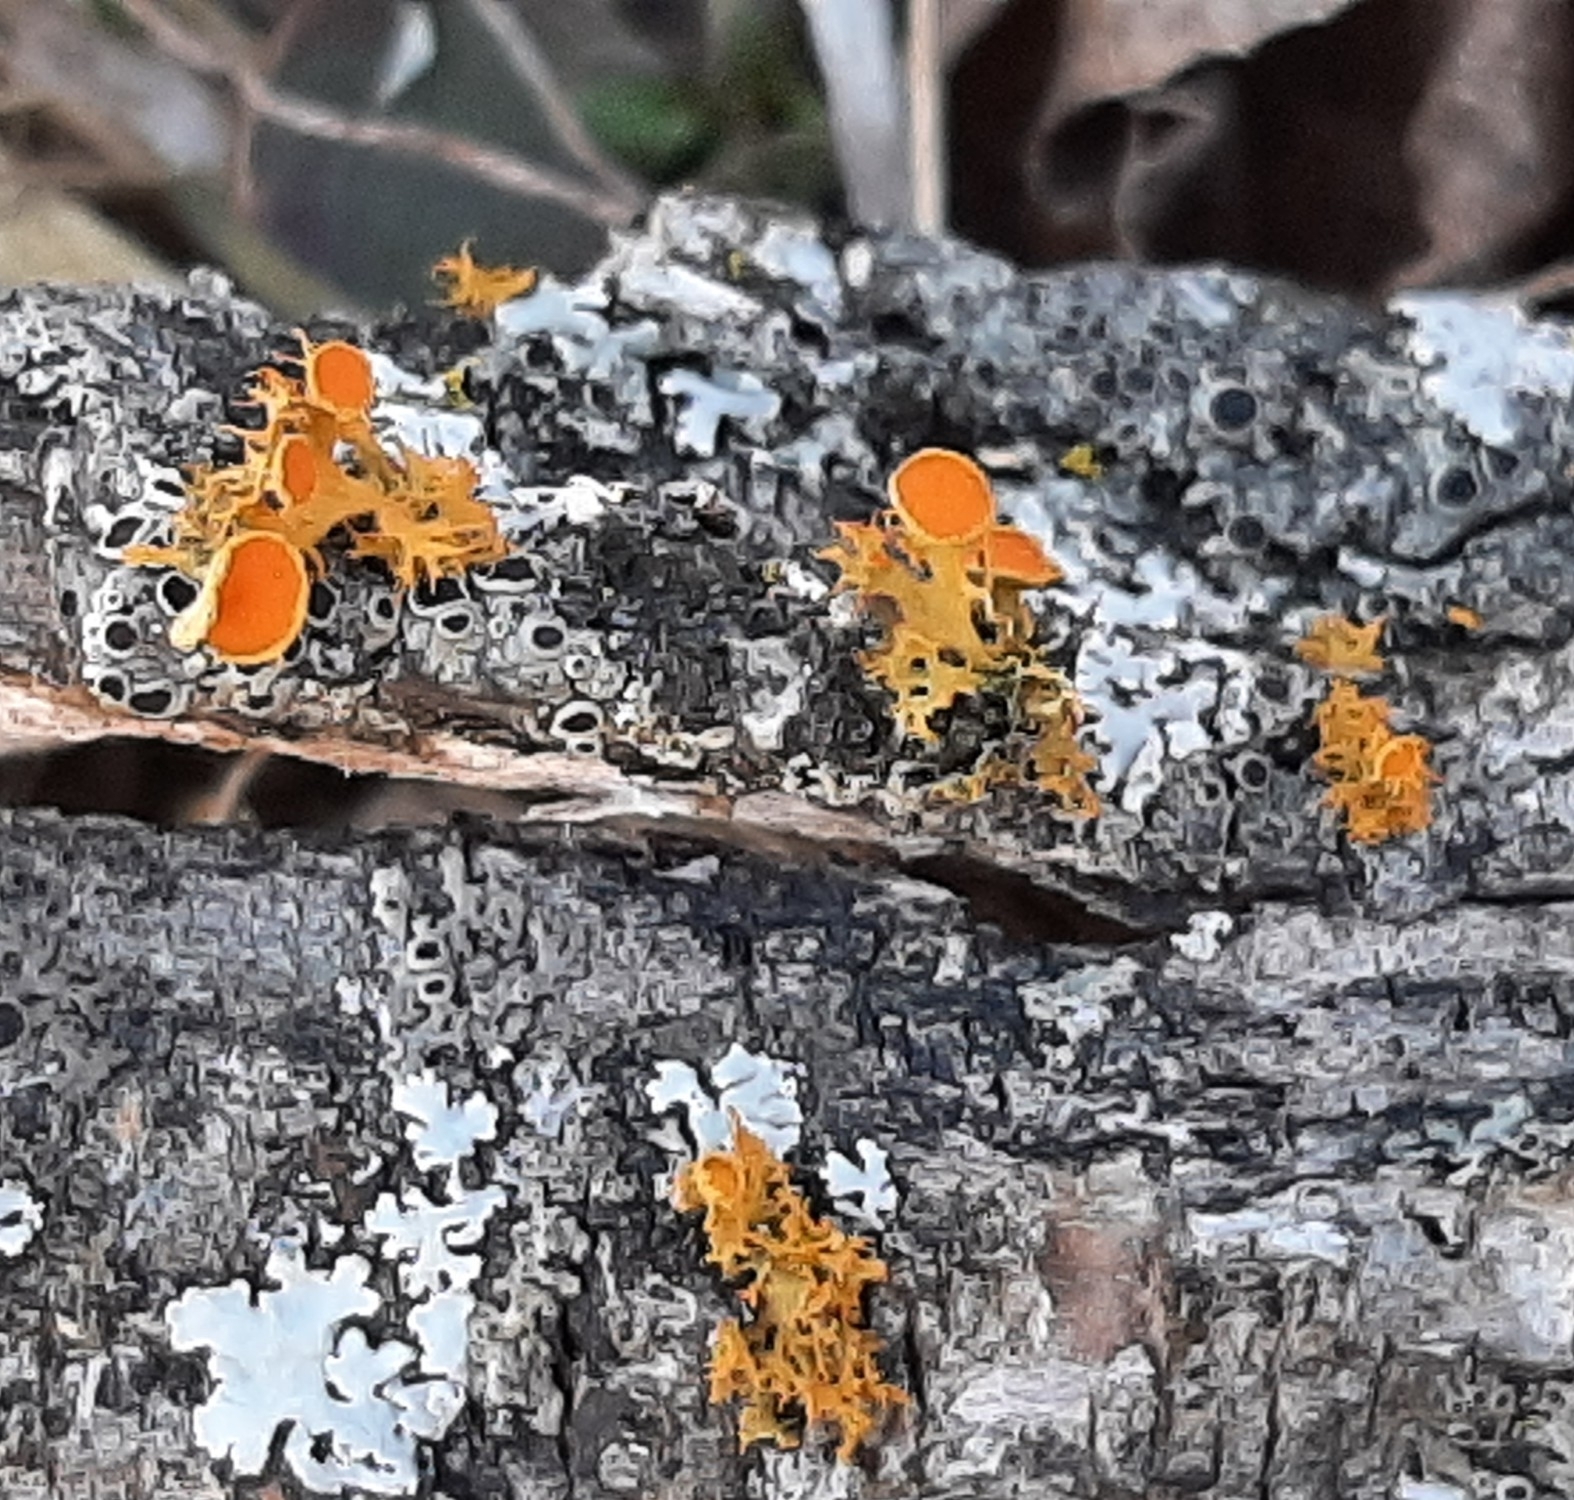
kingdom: Fungi
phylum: Ascomycota
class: Lecanoromycetes
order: Teloschistales
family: Teloschistaceae
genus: Niorma
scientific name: Niorma chrysophthalma
